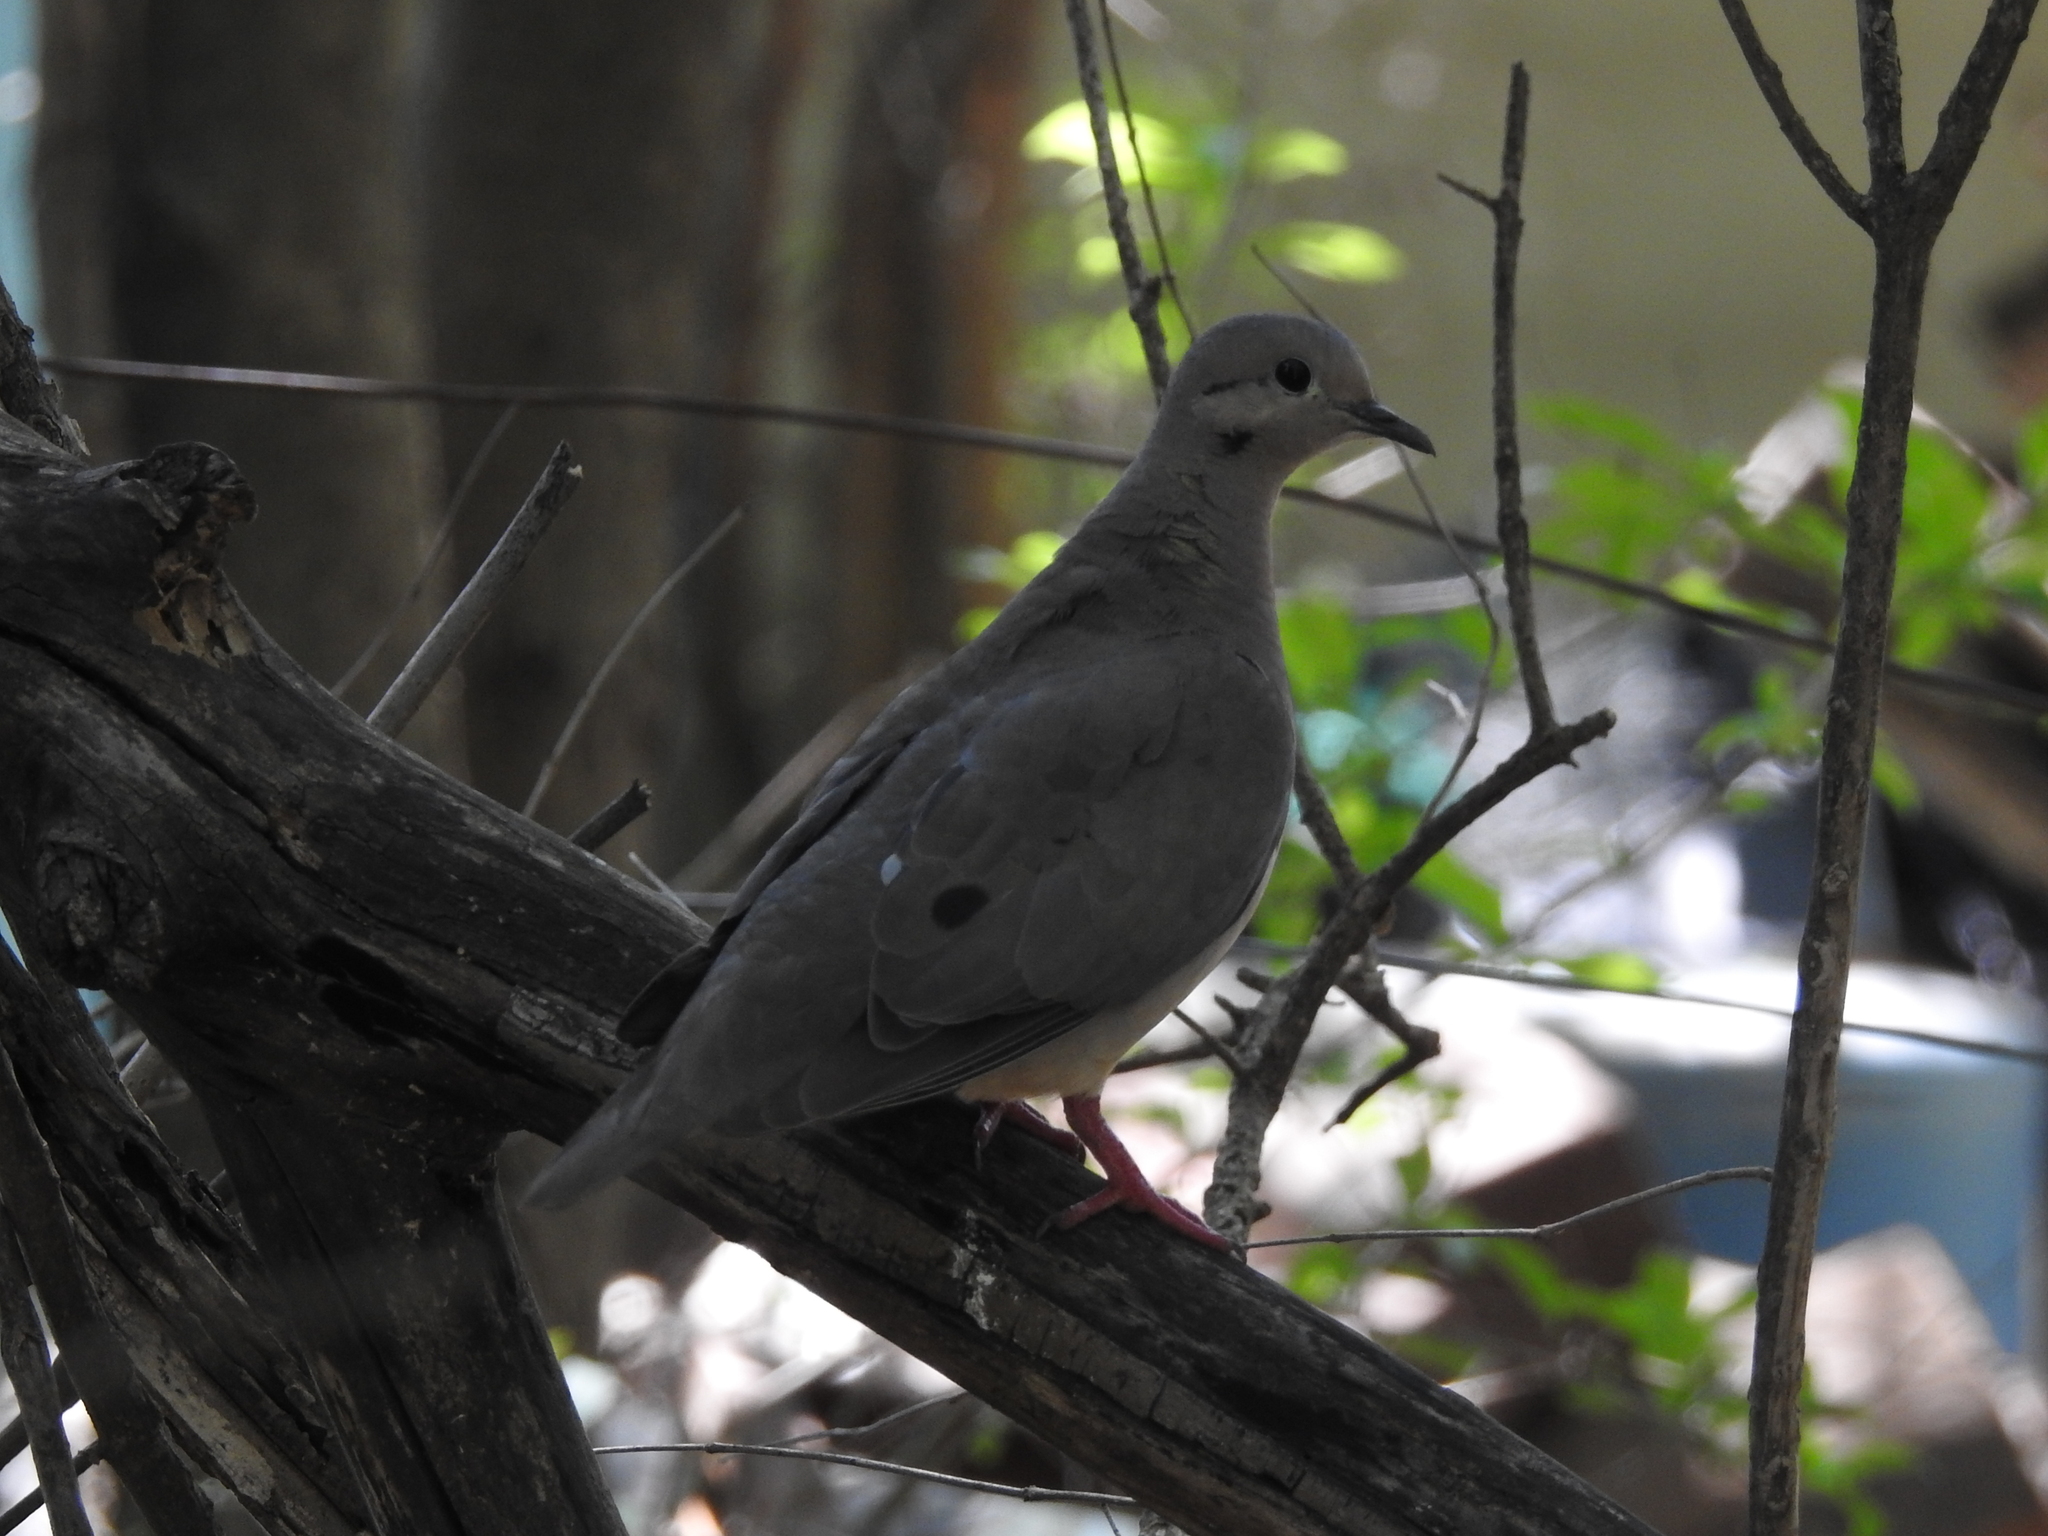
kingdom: Animalia
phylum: Chordata
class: Aves
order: Columbiformes
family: Columbidae
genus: Zenaida
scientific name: Zenaida auriculata
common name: Eared dove
